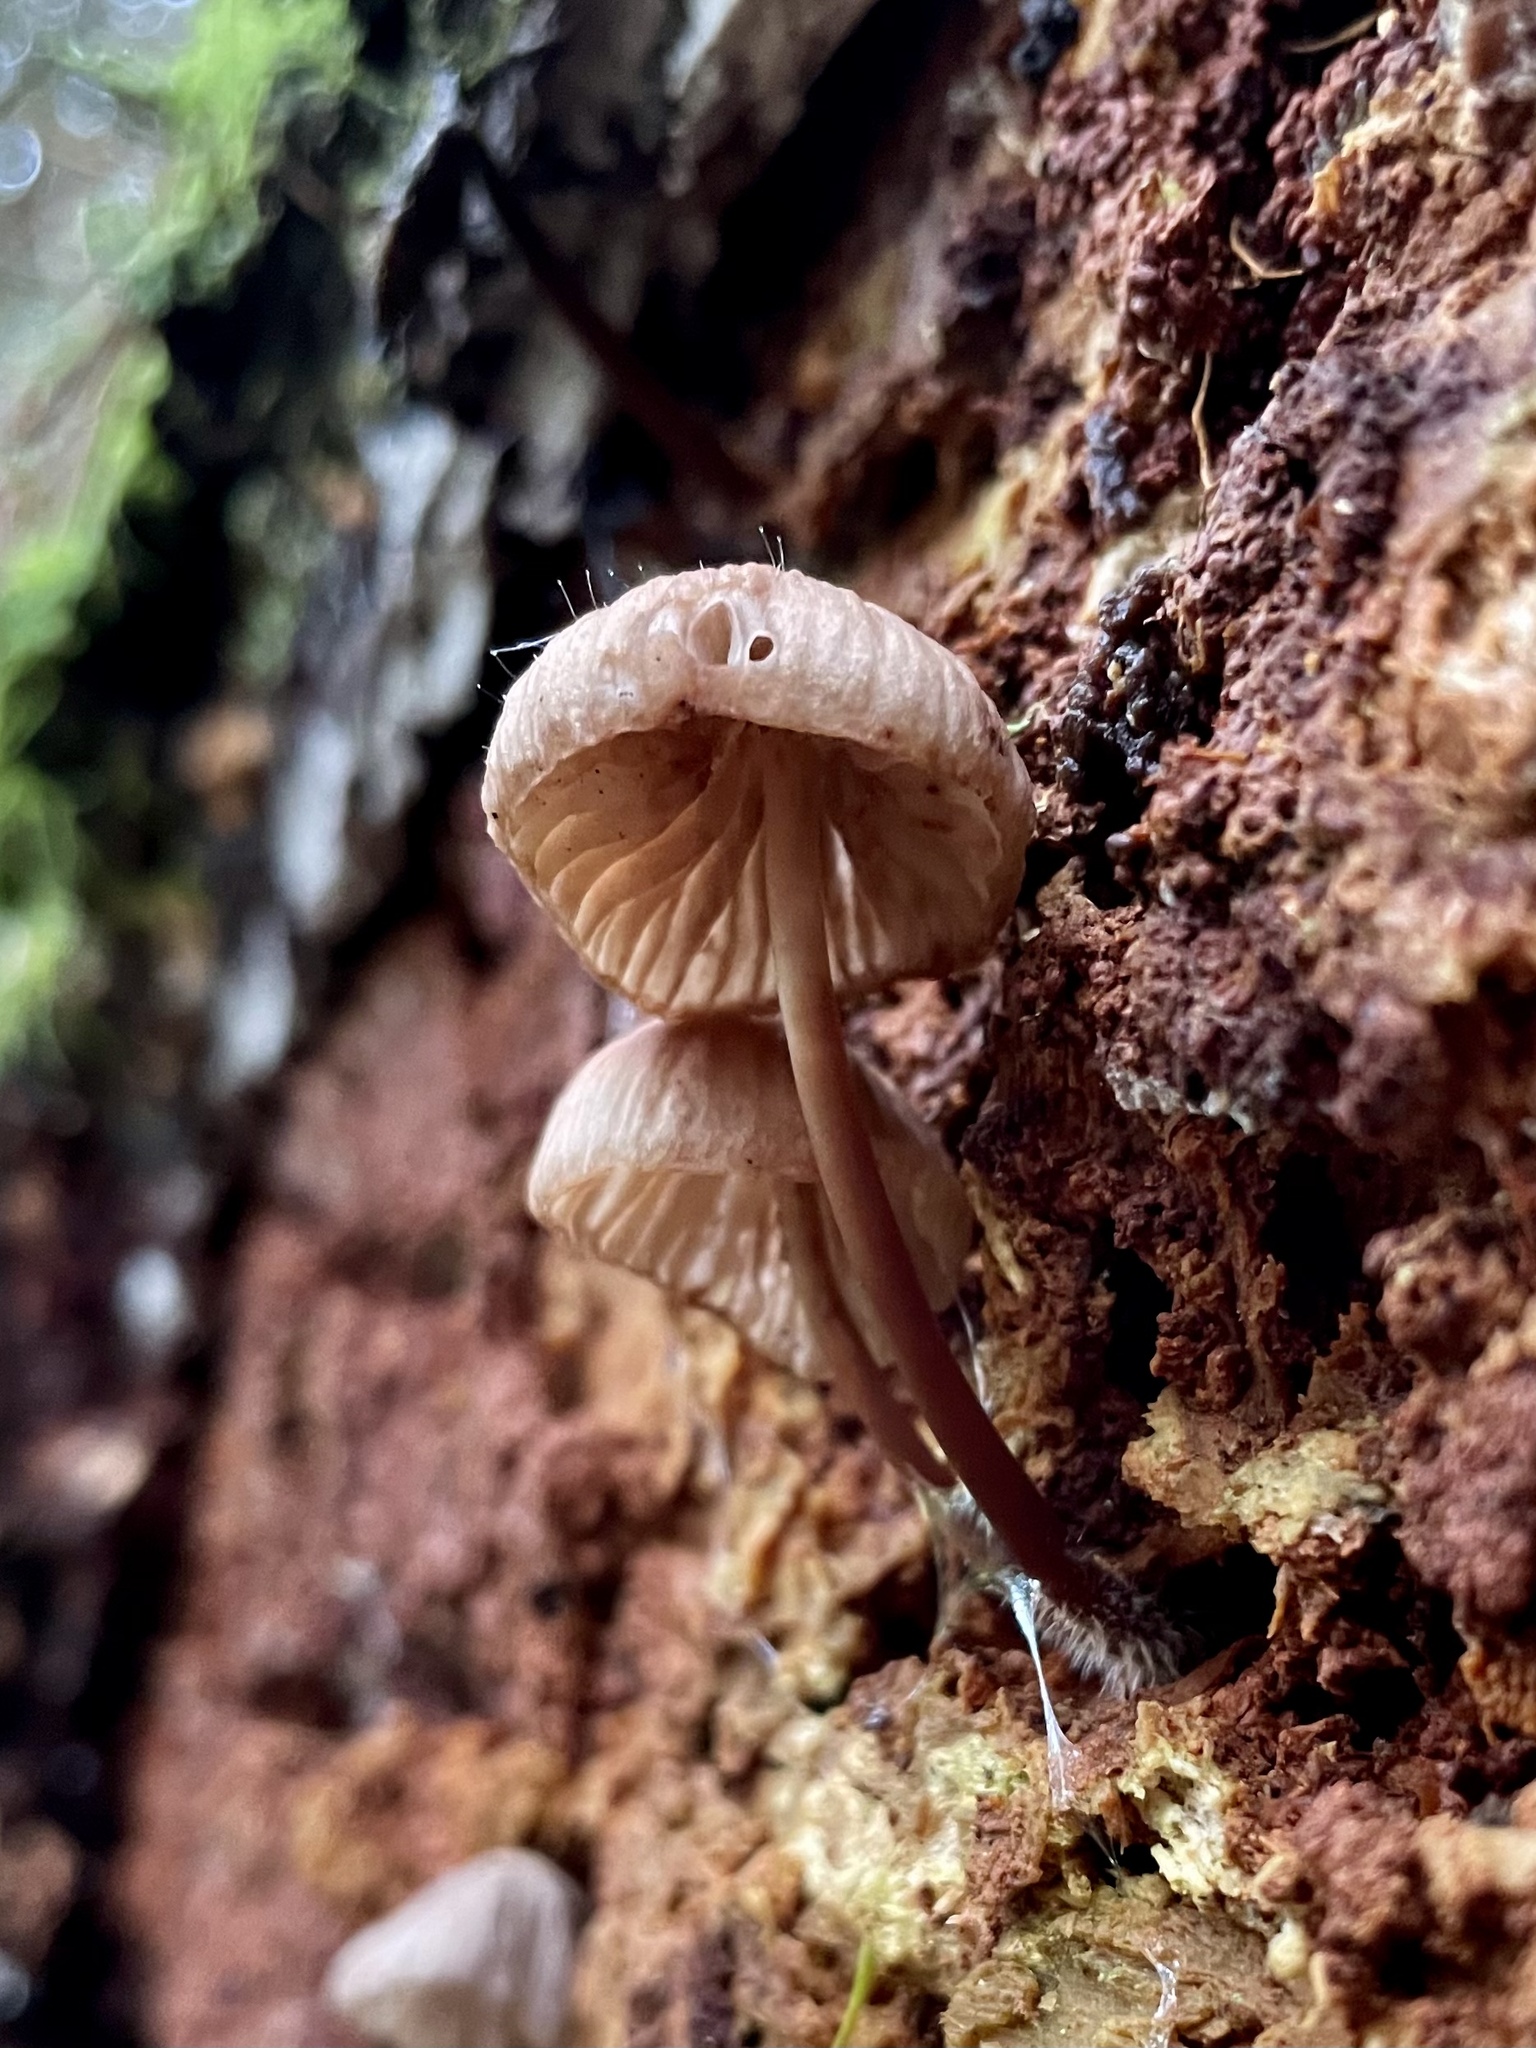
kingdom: Fungi
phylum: Basidiomycota
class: Agaricomycetes
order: Agaricales
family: Mycenaceae
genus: Mycena
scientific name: Mycena maculata
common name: Stained bonnet
